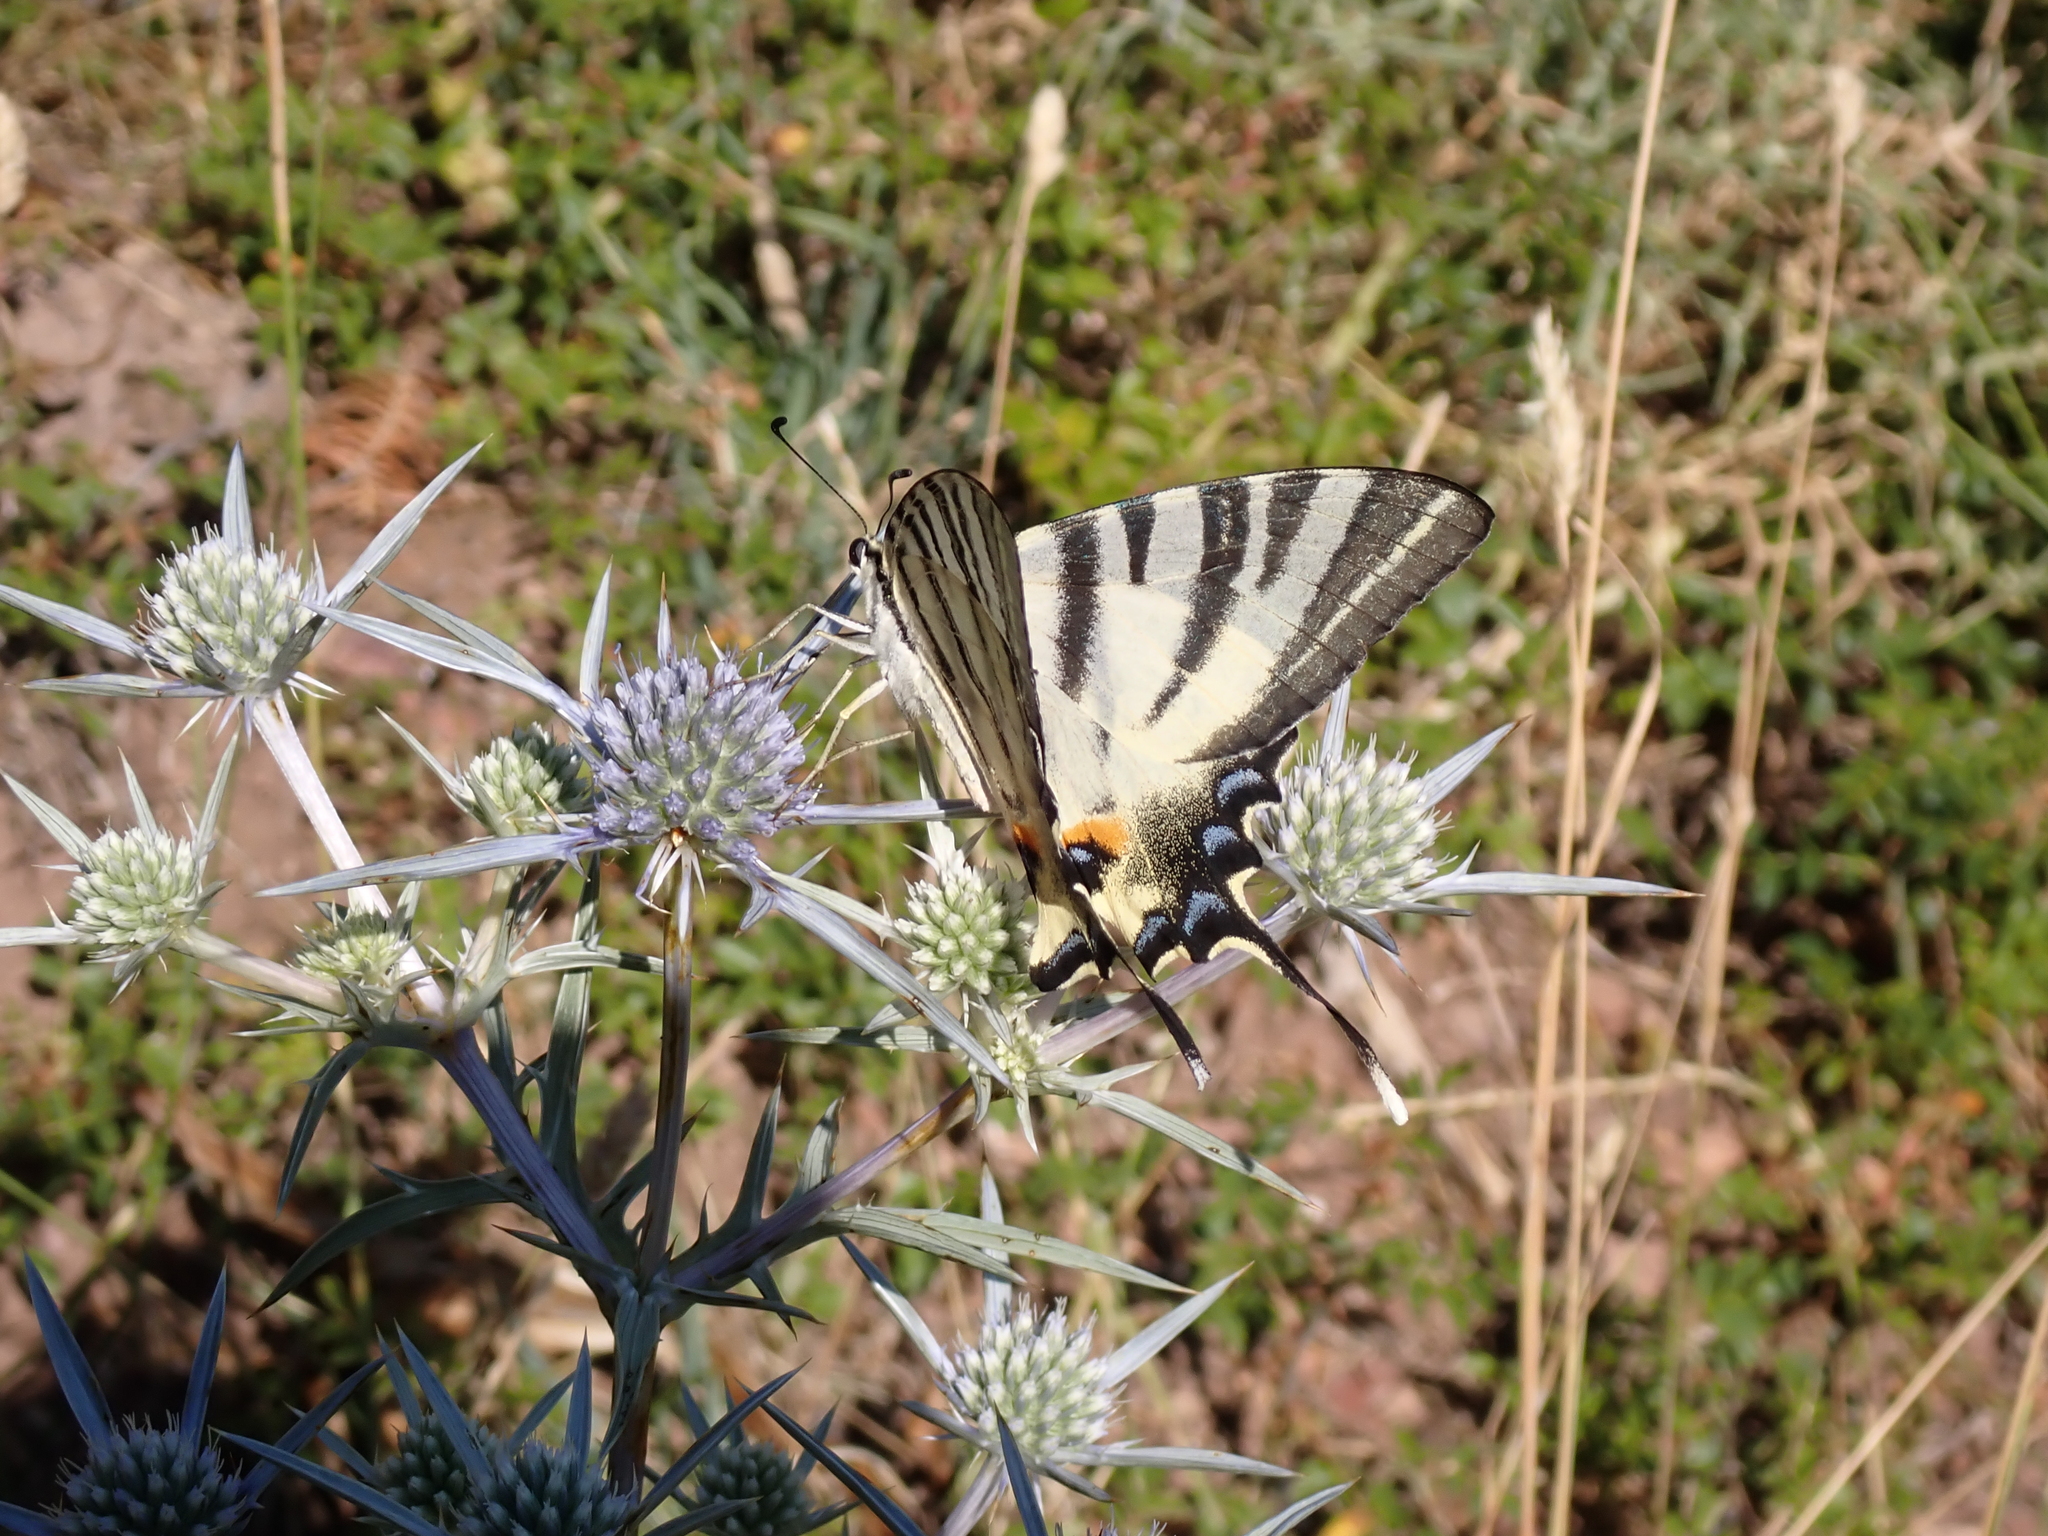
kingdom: Animalia
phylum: Arthropoda
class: Insecta
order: Lepidoptera
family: Papilionidae
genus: Iphiclides
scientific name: Iphiclides podalirius
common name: Scarce swallowtail
